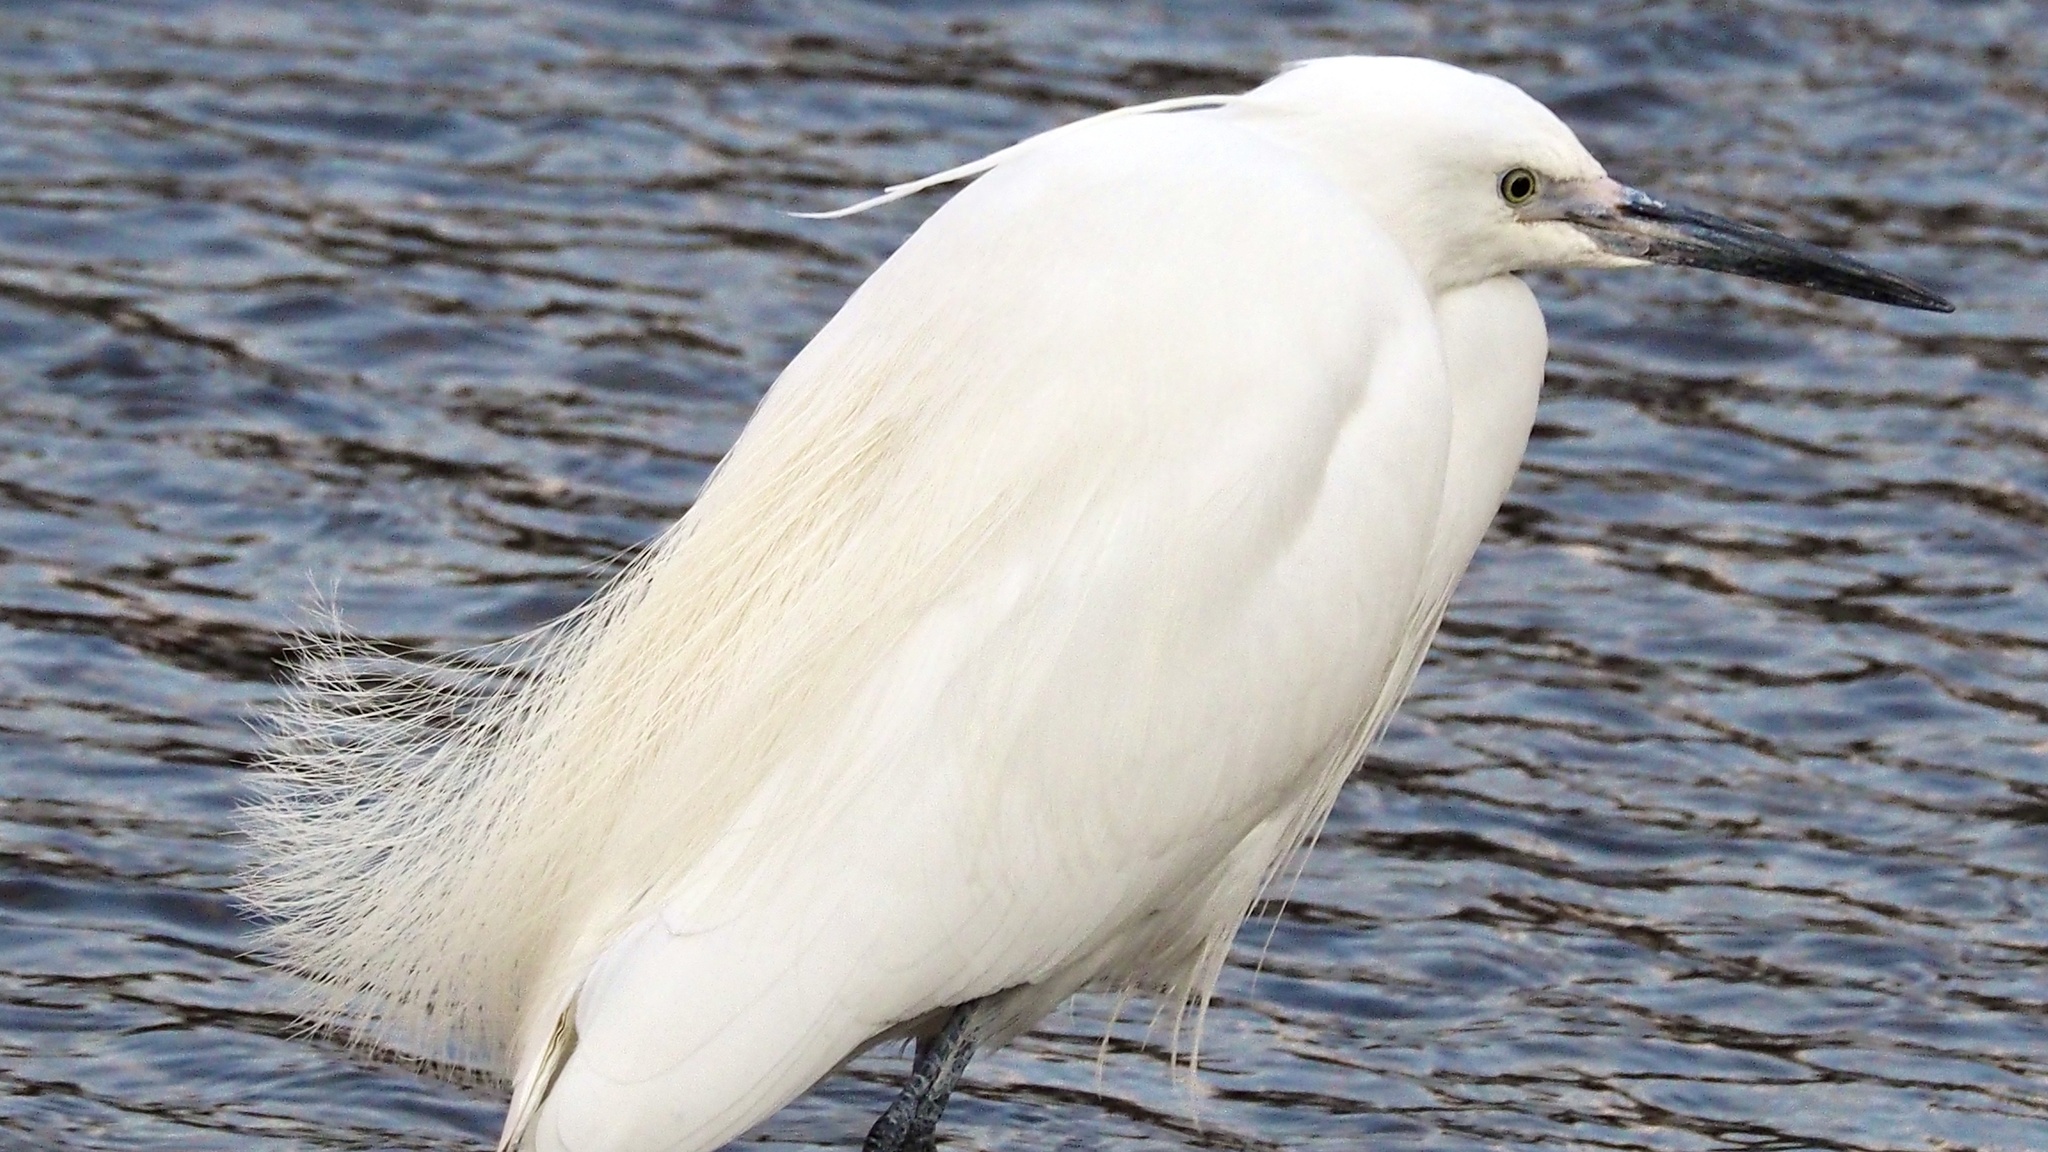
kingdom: Animalia
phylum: Chordata
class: Aves
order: Pelecaniformes
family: Ardeidae
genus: Egretta
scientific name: Egretta garzetta
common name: Little egret
